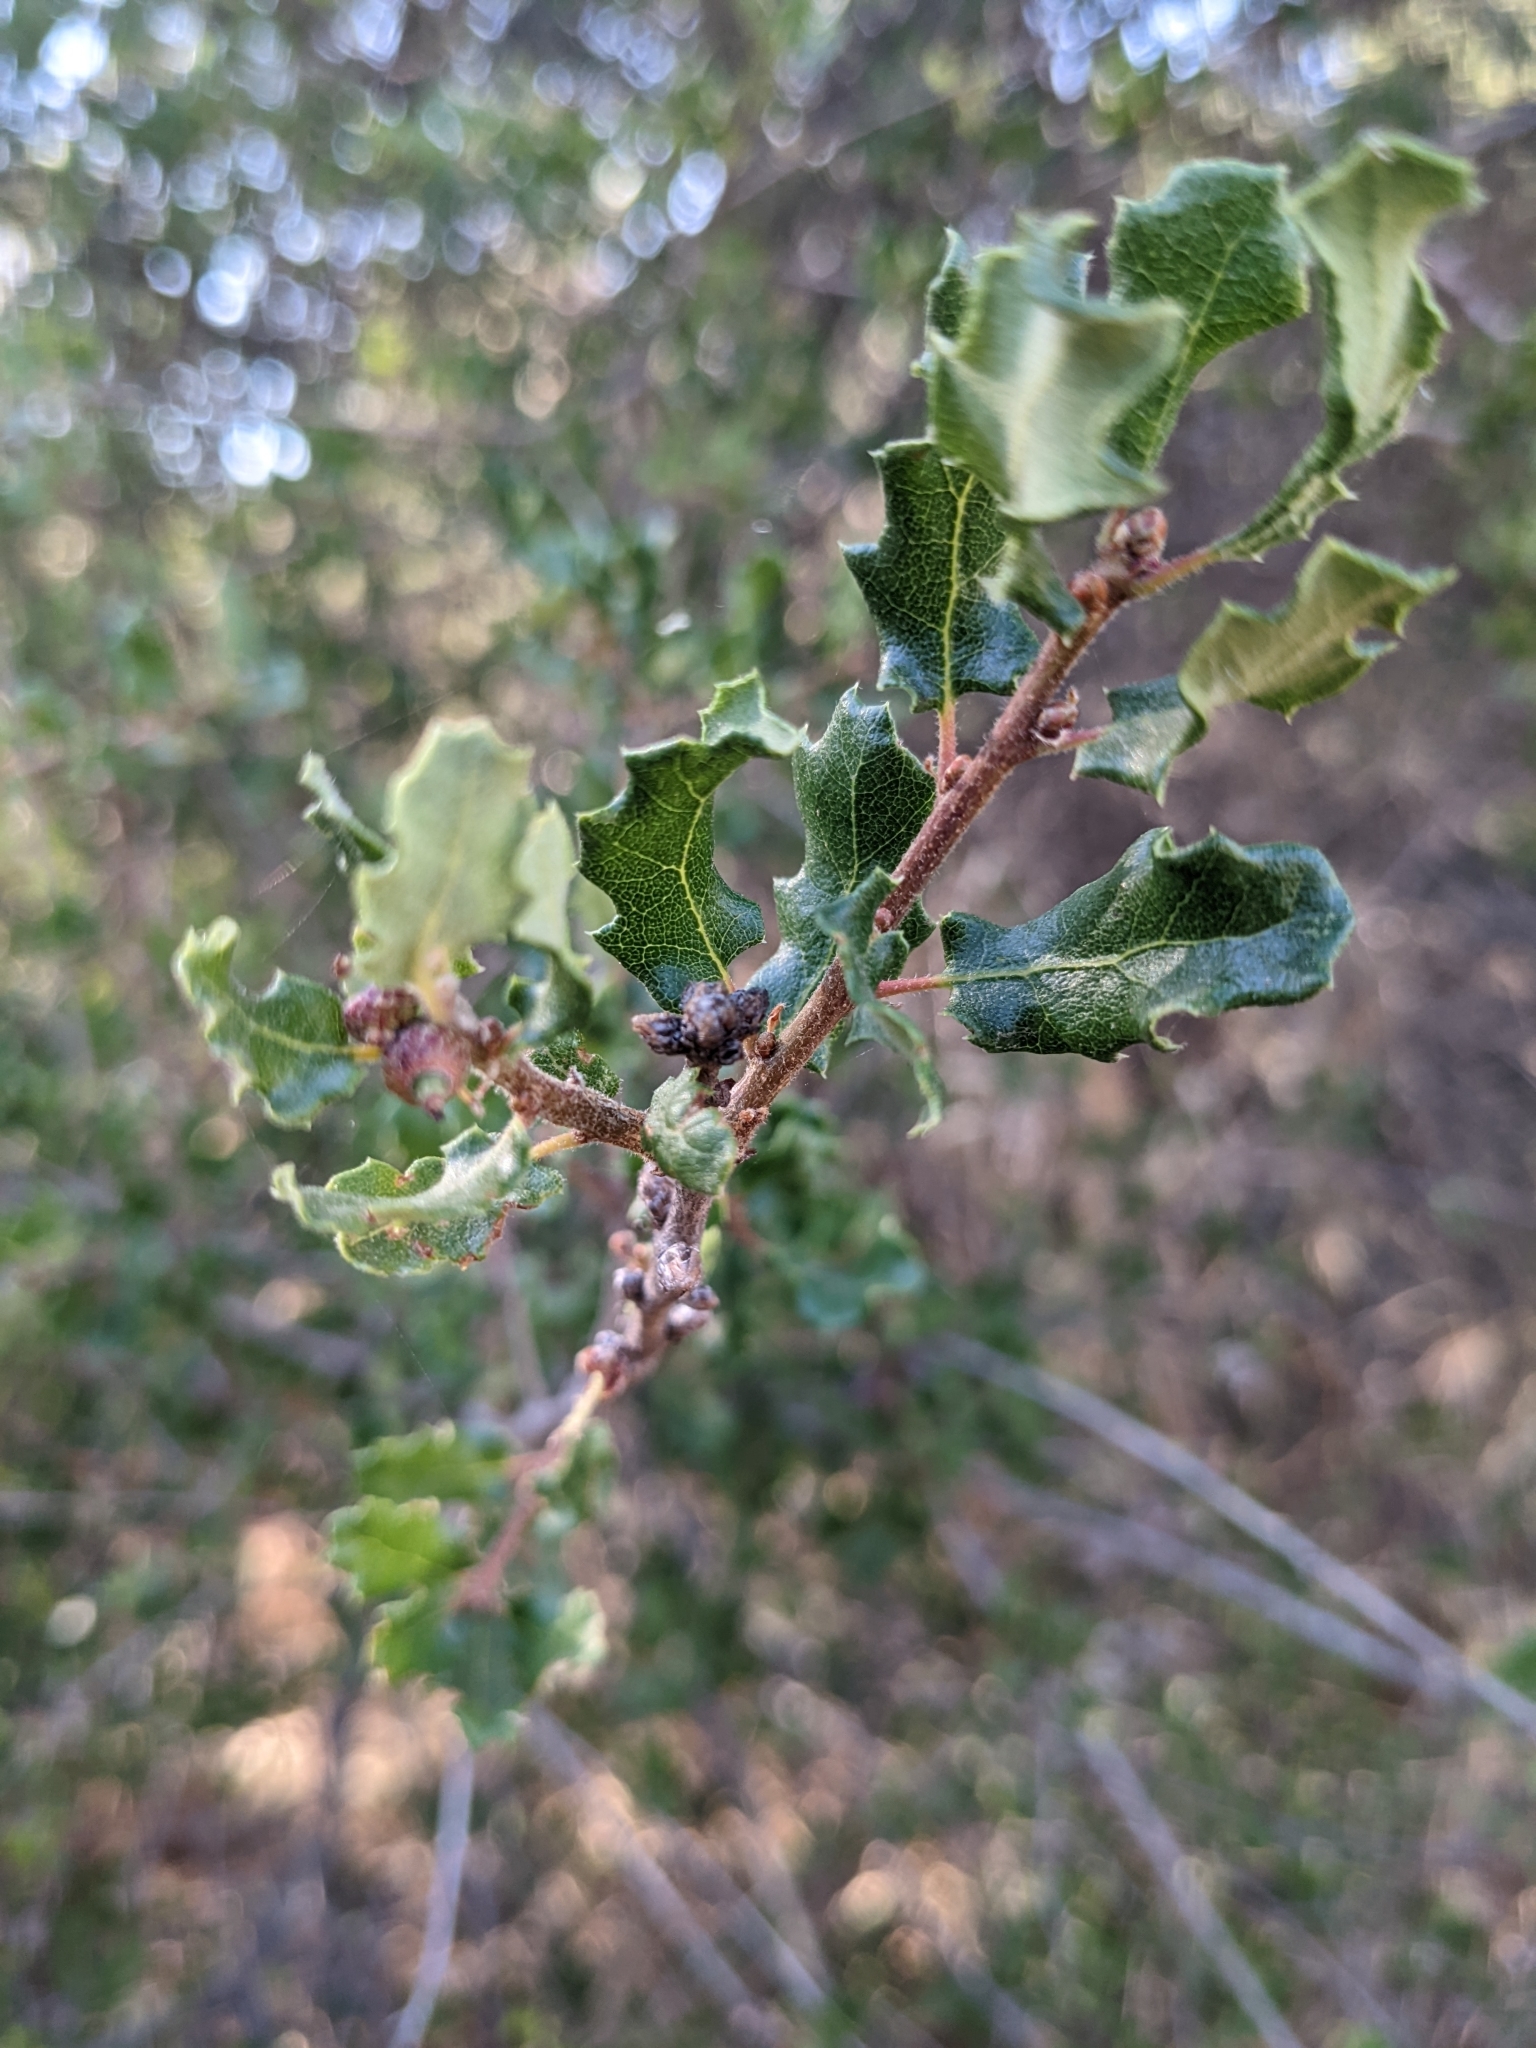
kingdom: Plantae
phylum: Tracheophyta
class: Magnoliopsida
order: Fagales
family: Fagaceae
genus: Quercus
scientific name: Quercus dumosa
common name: Coastal sage scrub oak
